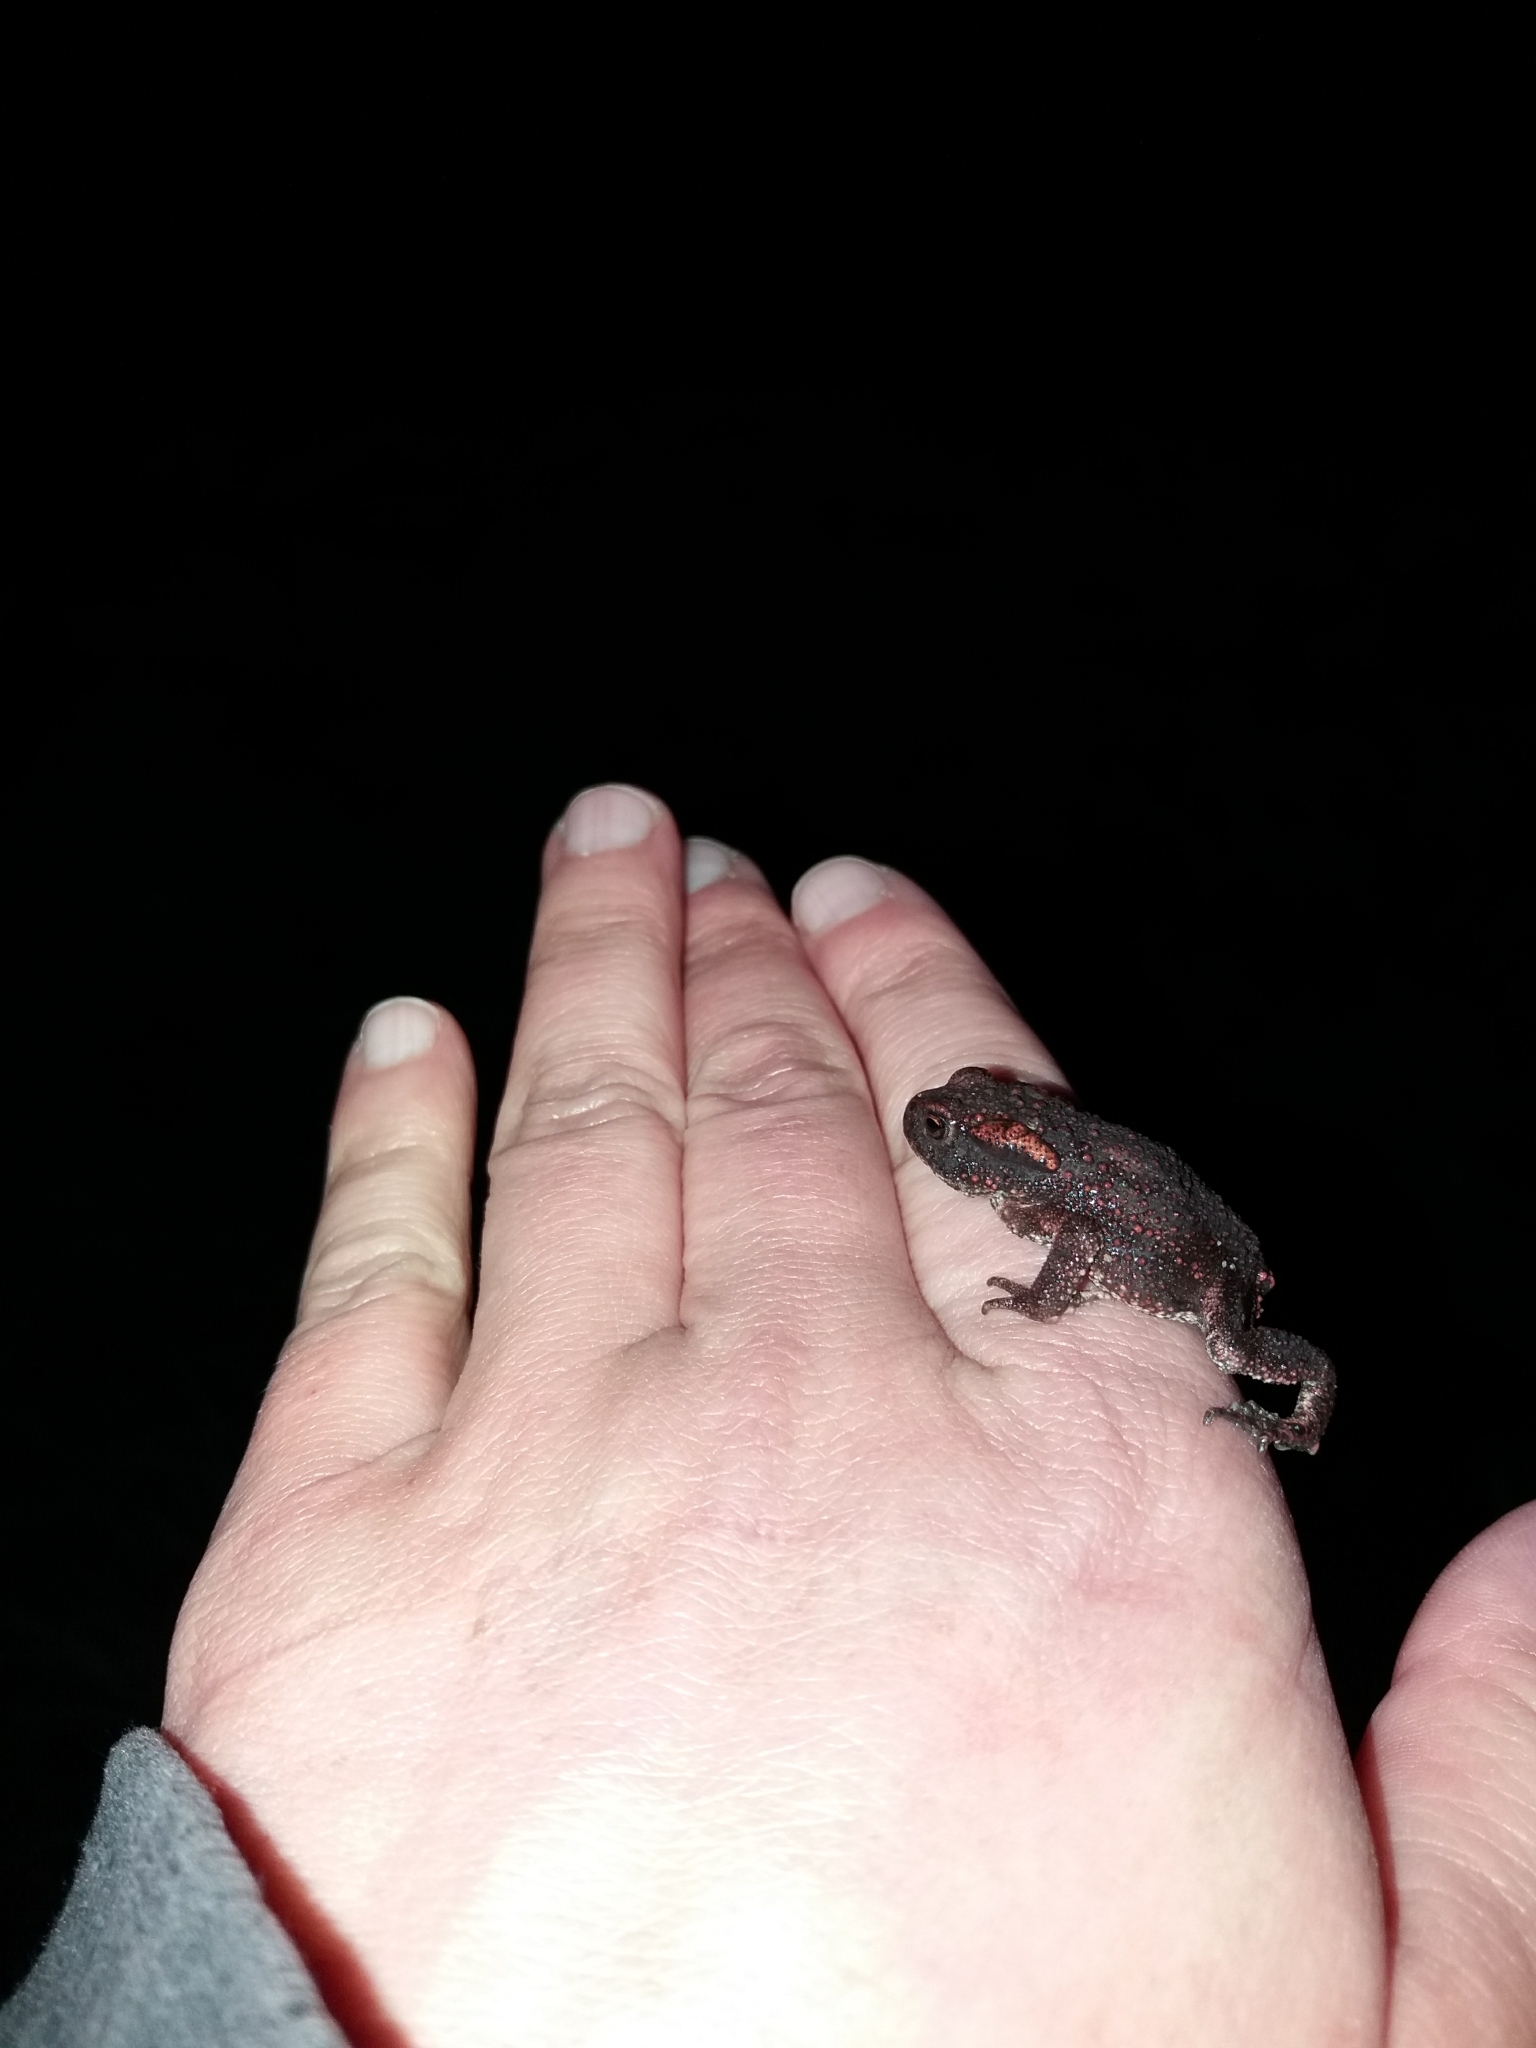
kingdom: Animalia
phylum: Chordata
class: Amphibia
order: Anura
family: Bufonidae
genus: Bufo
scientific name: Bufo bufo
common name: Common toad
